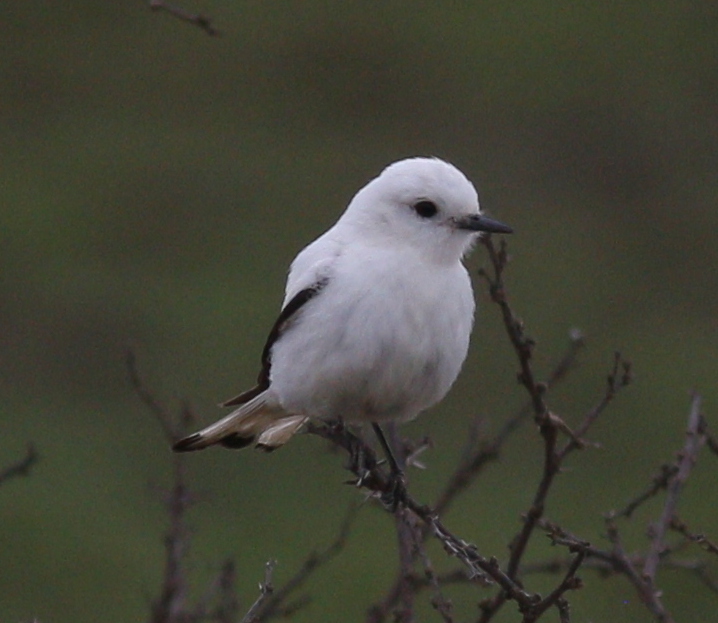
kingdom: Animalia
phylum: Chordata
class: Aves
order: Passeriformes
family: Tyrannidae
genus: Xolmis
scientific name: Xolmis irupero
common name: White monjita
